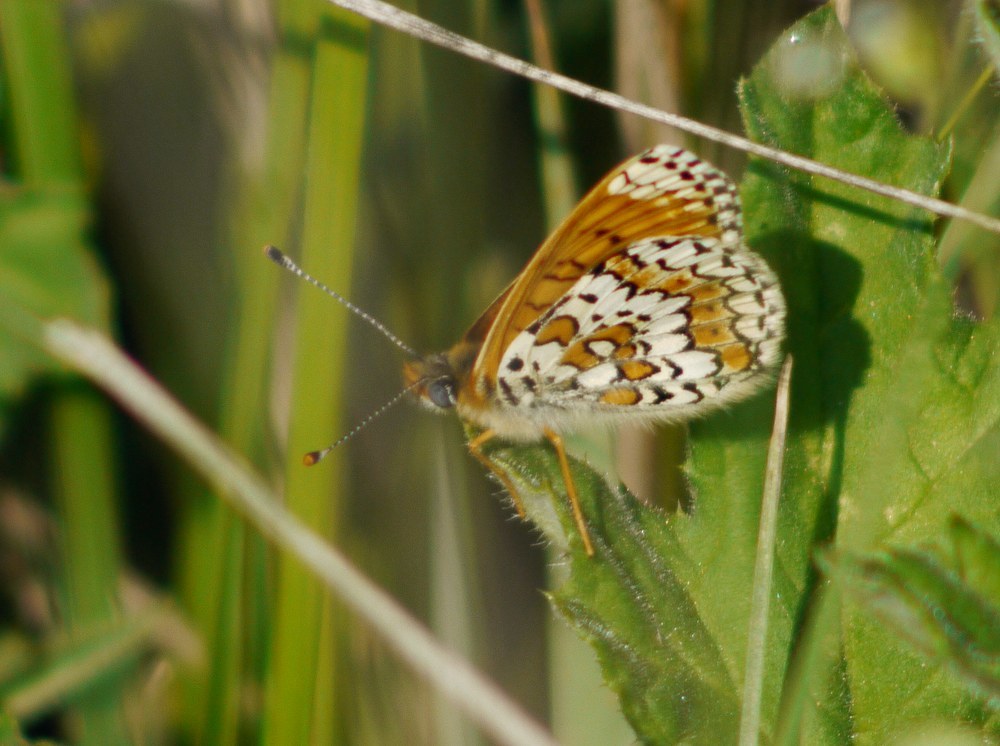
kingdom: Animalia
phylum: Arthropoda
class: Insecta
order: Lepidoptera
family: Nymphalidae
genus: Melitaea
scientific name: Melitaea cinxia
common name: Glanville fritillary
